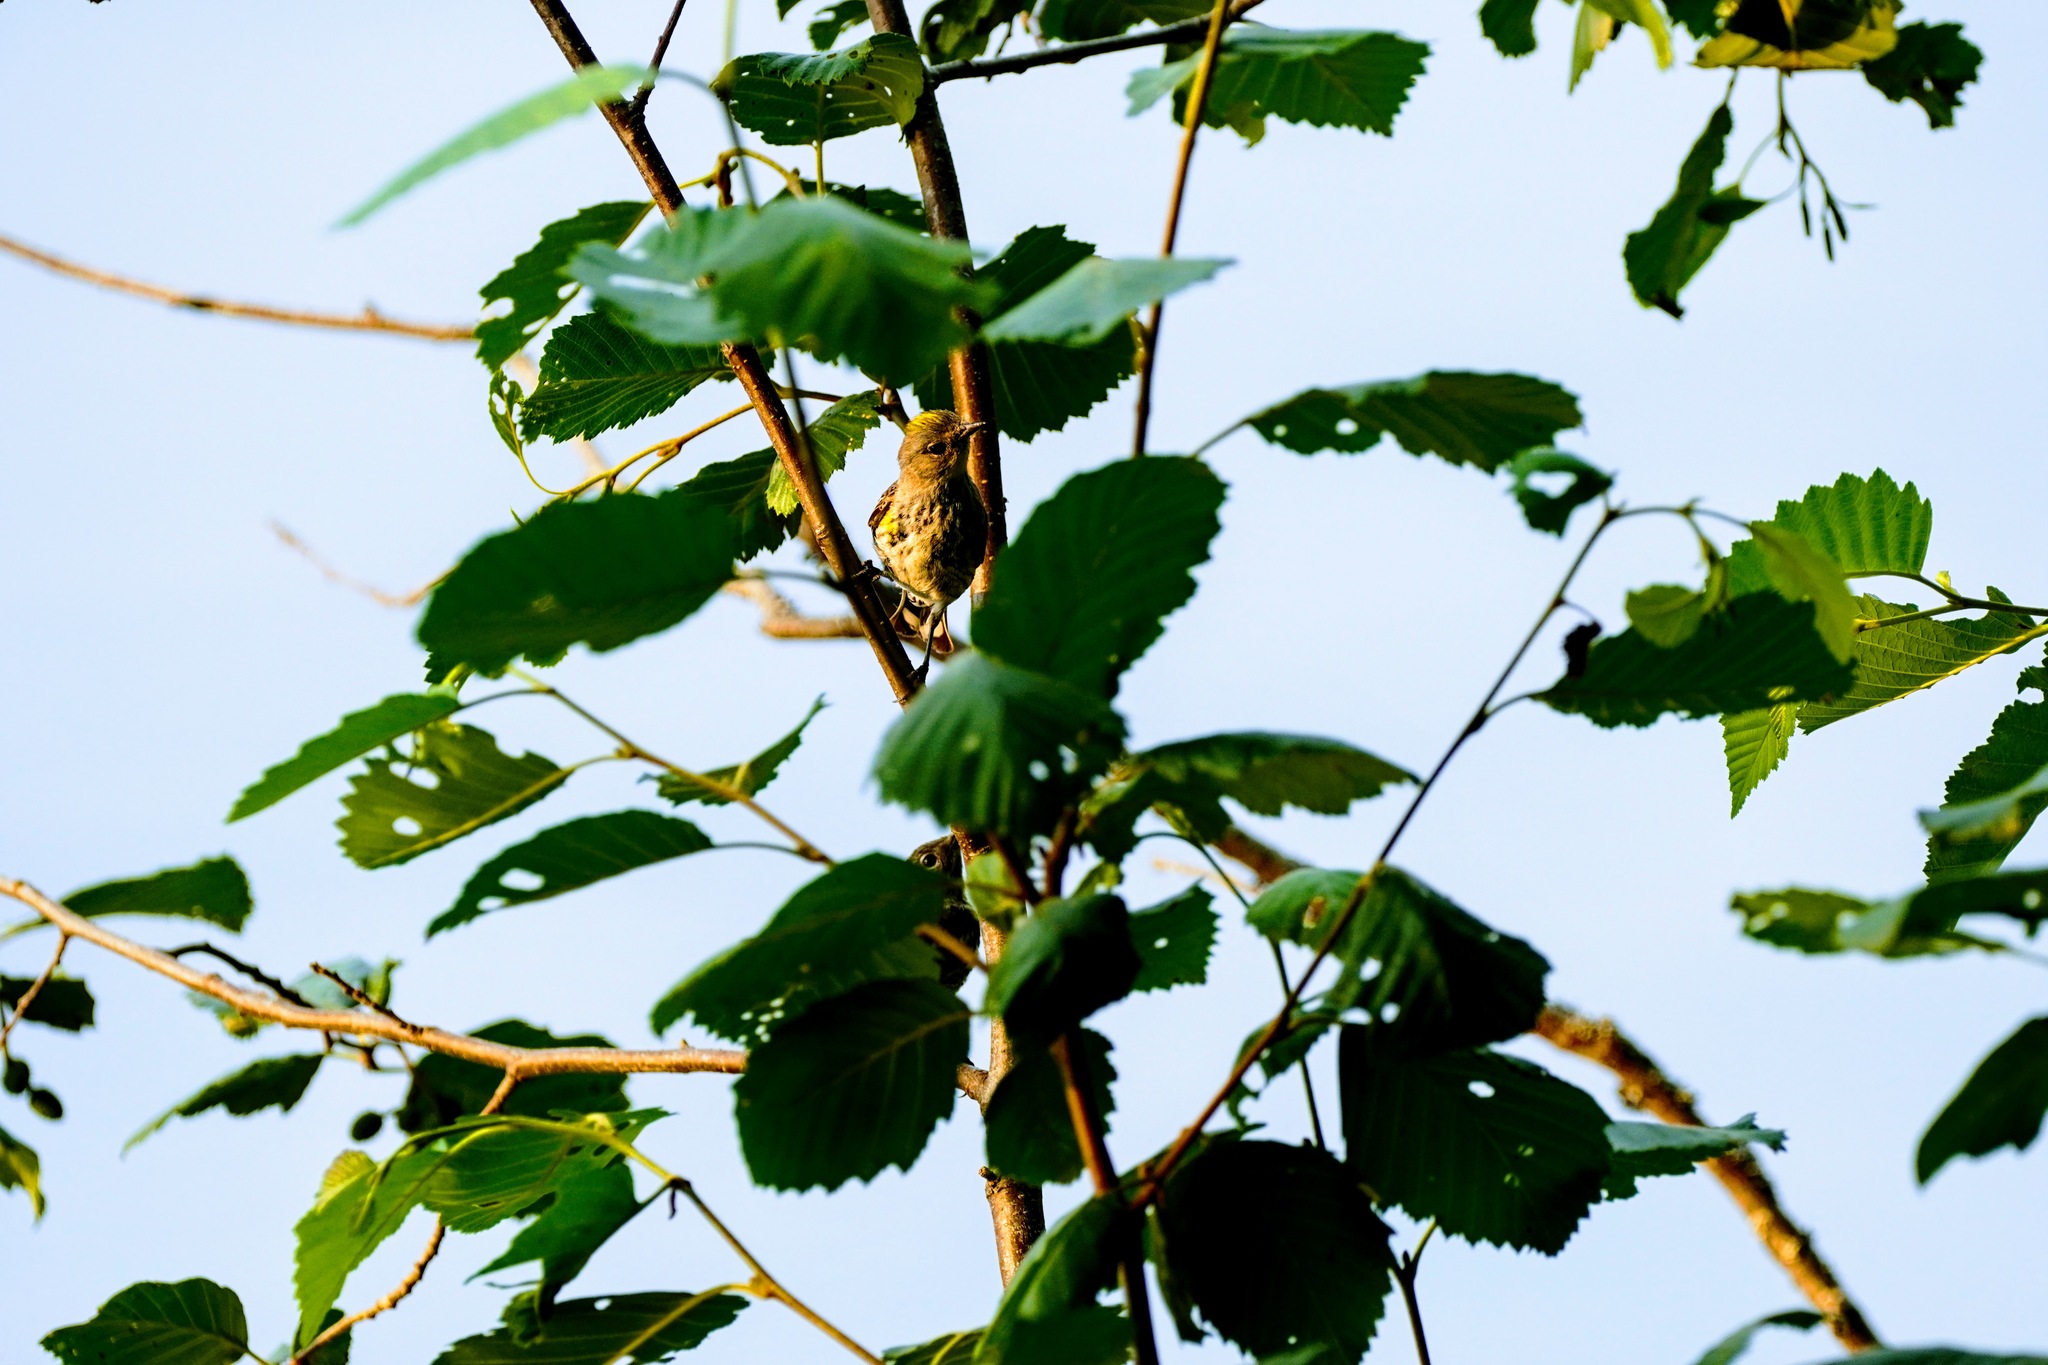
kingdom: Animalia
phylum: Chordata
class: Aves
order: Passeriformes
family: Parulidae
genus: Setophaga
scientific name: Setophaga coronata
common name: Myrtle warbler
